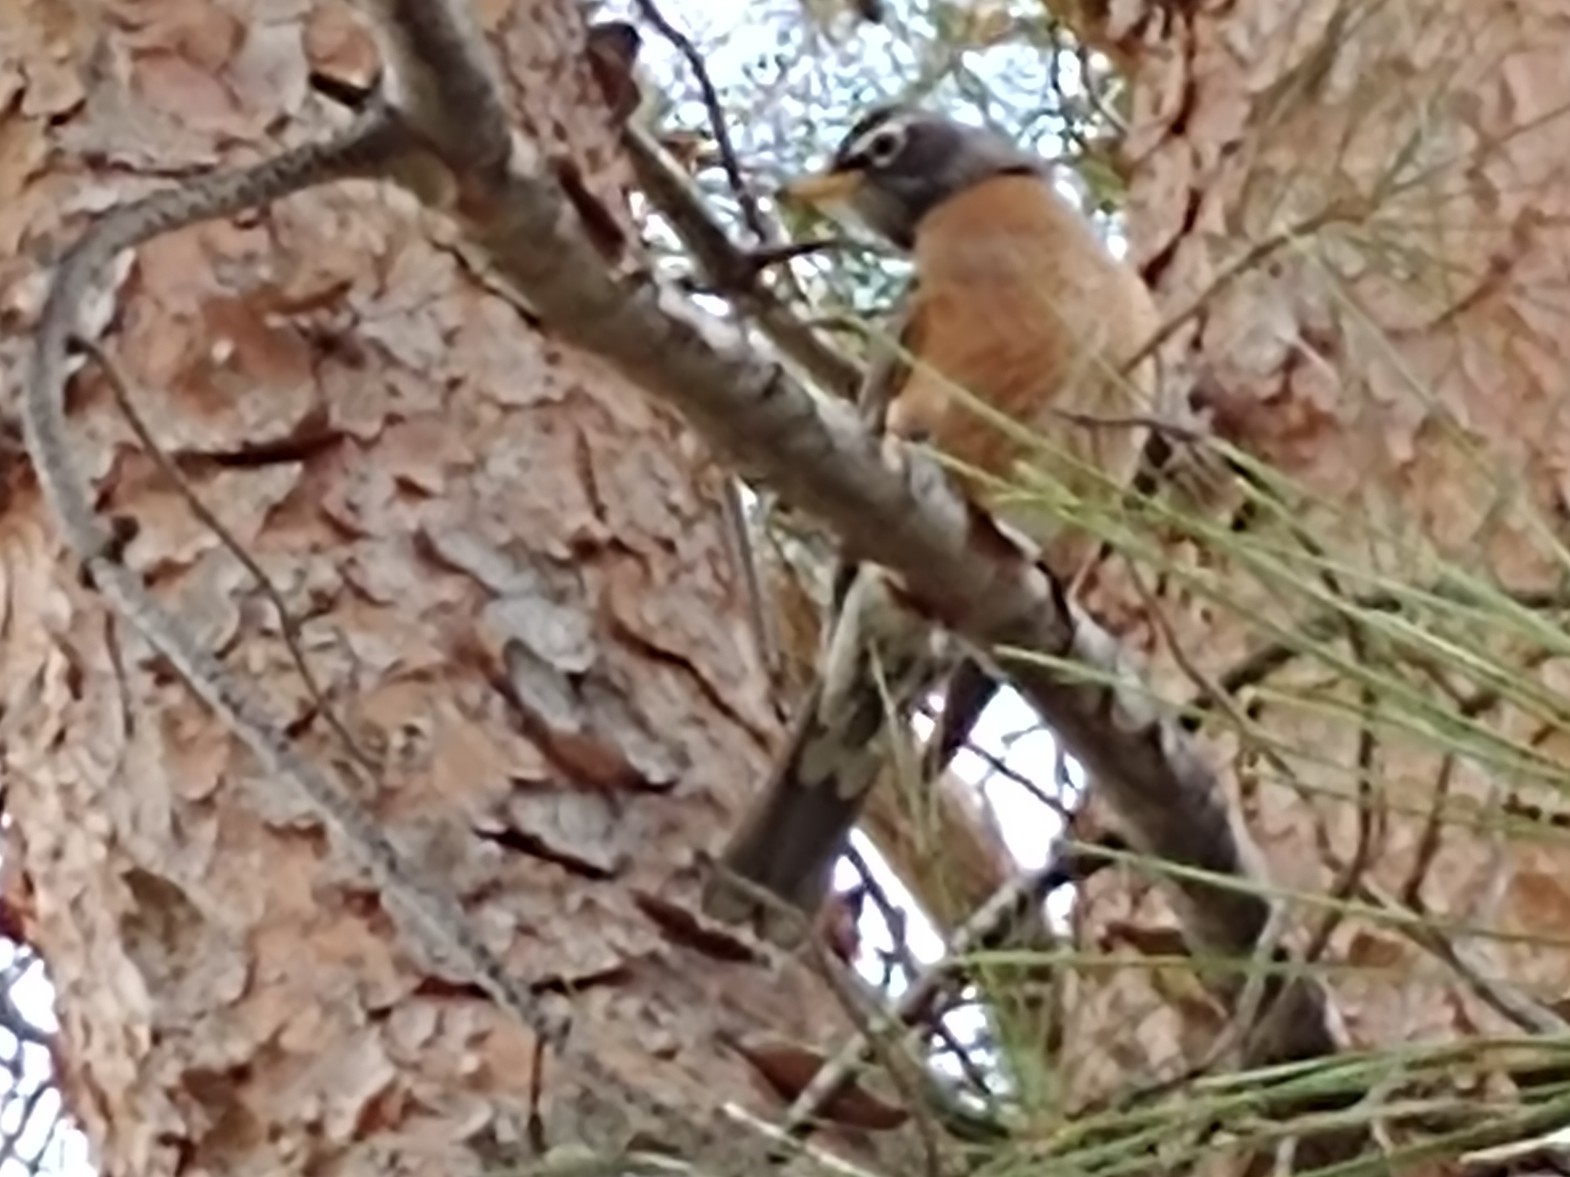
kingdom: Animalia
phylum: Chordata
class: Aves
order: Passeriformes
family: Turdidae
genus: Turdus
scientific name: Turdus migratorius
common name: American robin
